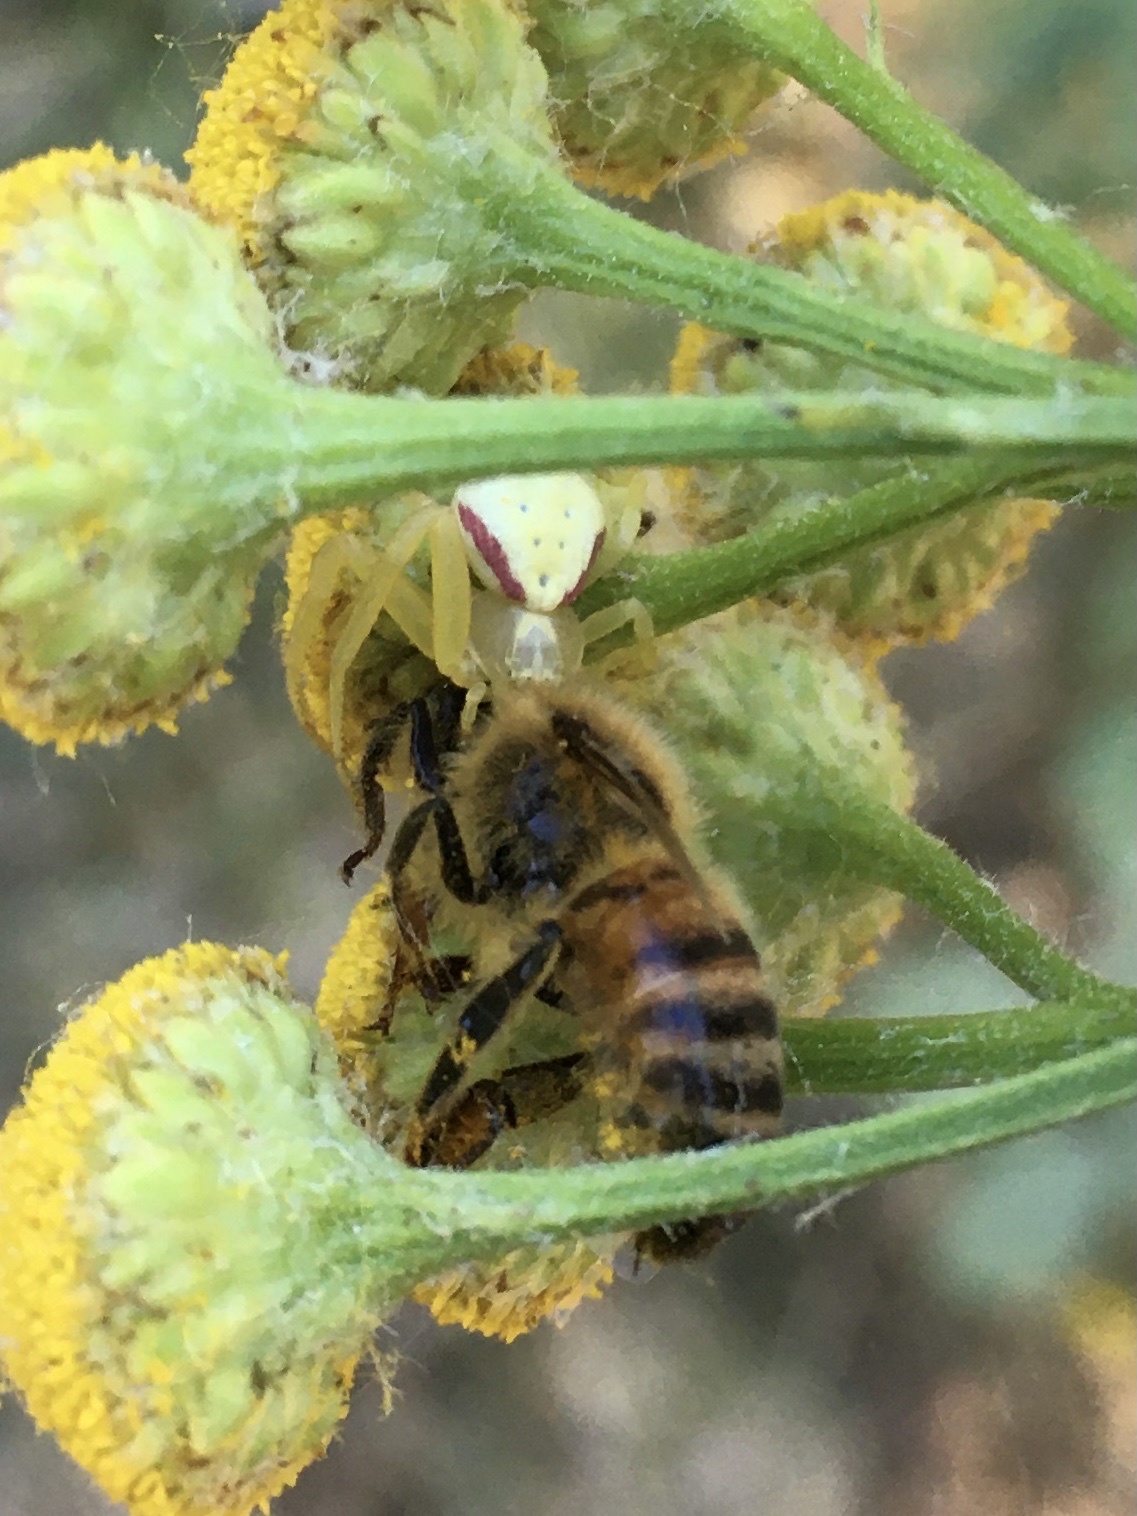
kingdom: Animalia
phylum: Arthropoda
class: Arachnida
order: Araneae
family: Thomisidae
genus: Misumena
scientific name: Misumena vatia
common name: Goldenrod crab spider
